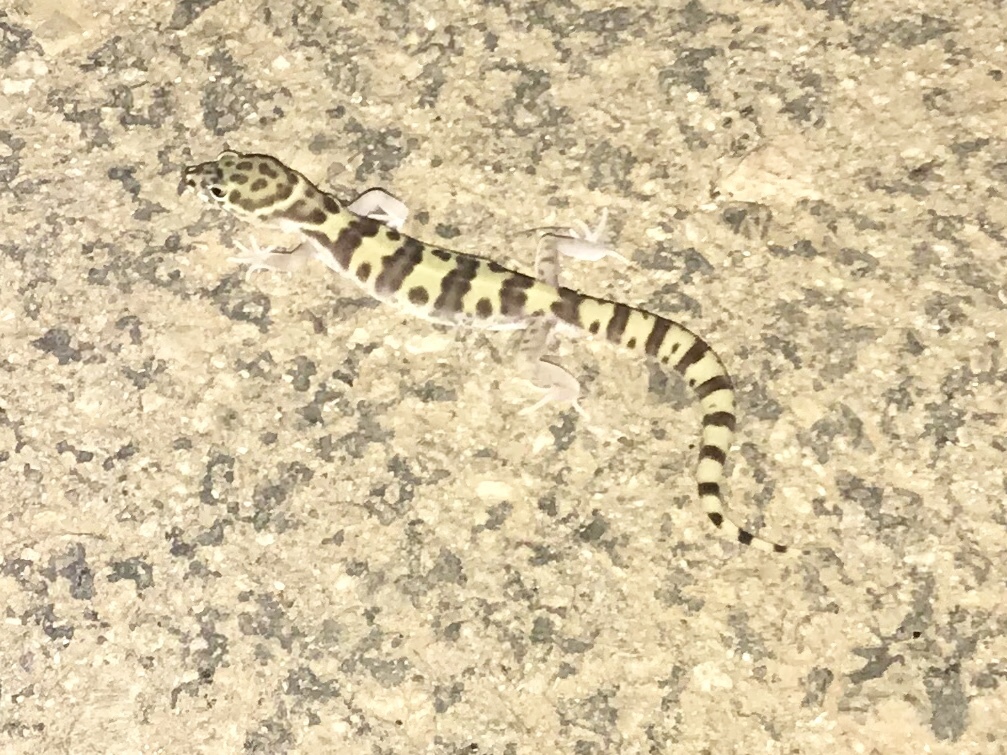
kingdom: Animalia
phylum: Chordata
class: Squamata
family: Eublepharidae
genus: Coleonyx
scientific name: Coleonyx variegatus
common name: Western banded gecko
